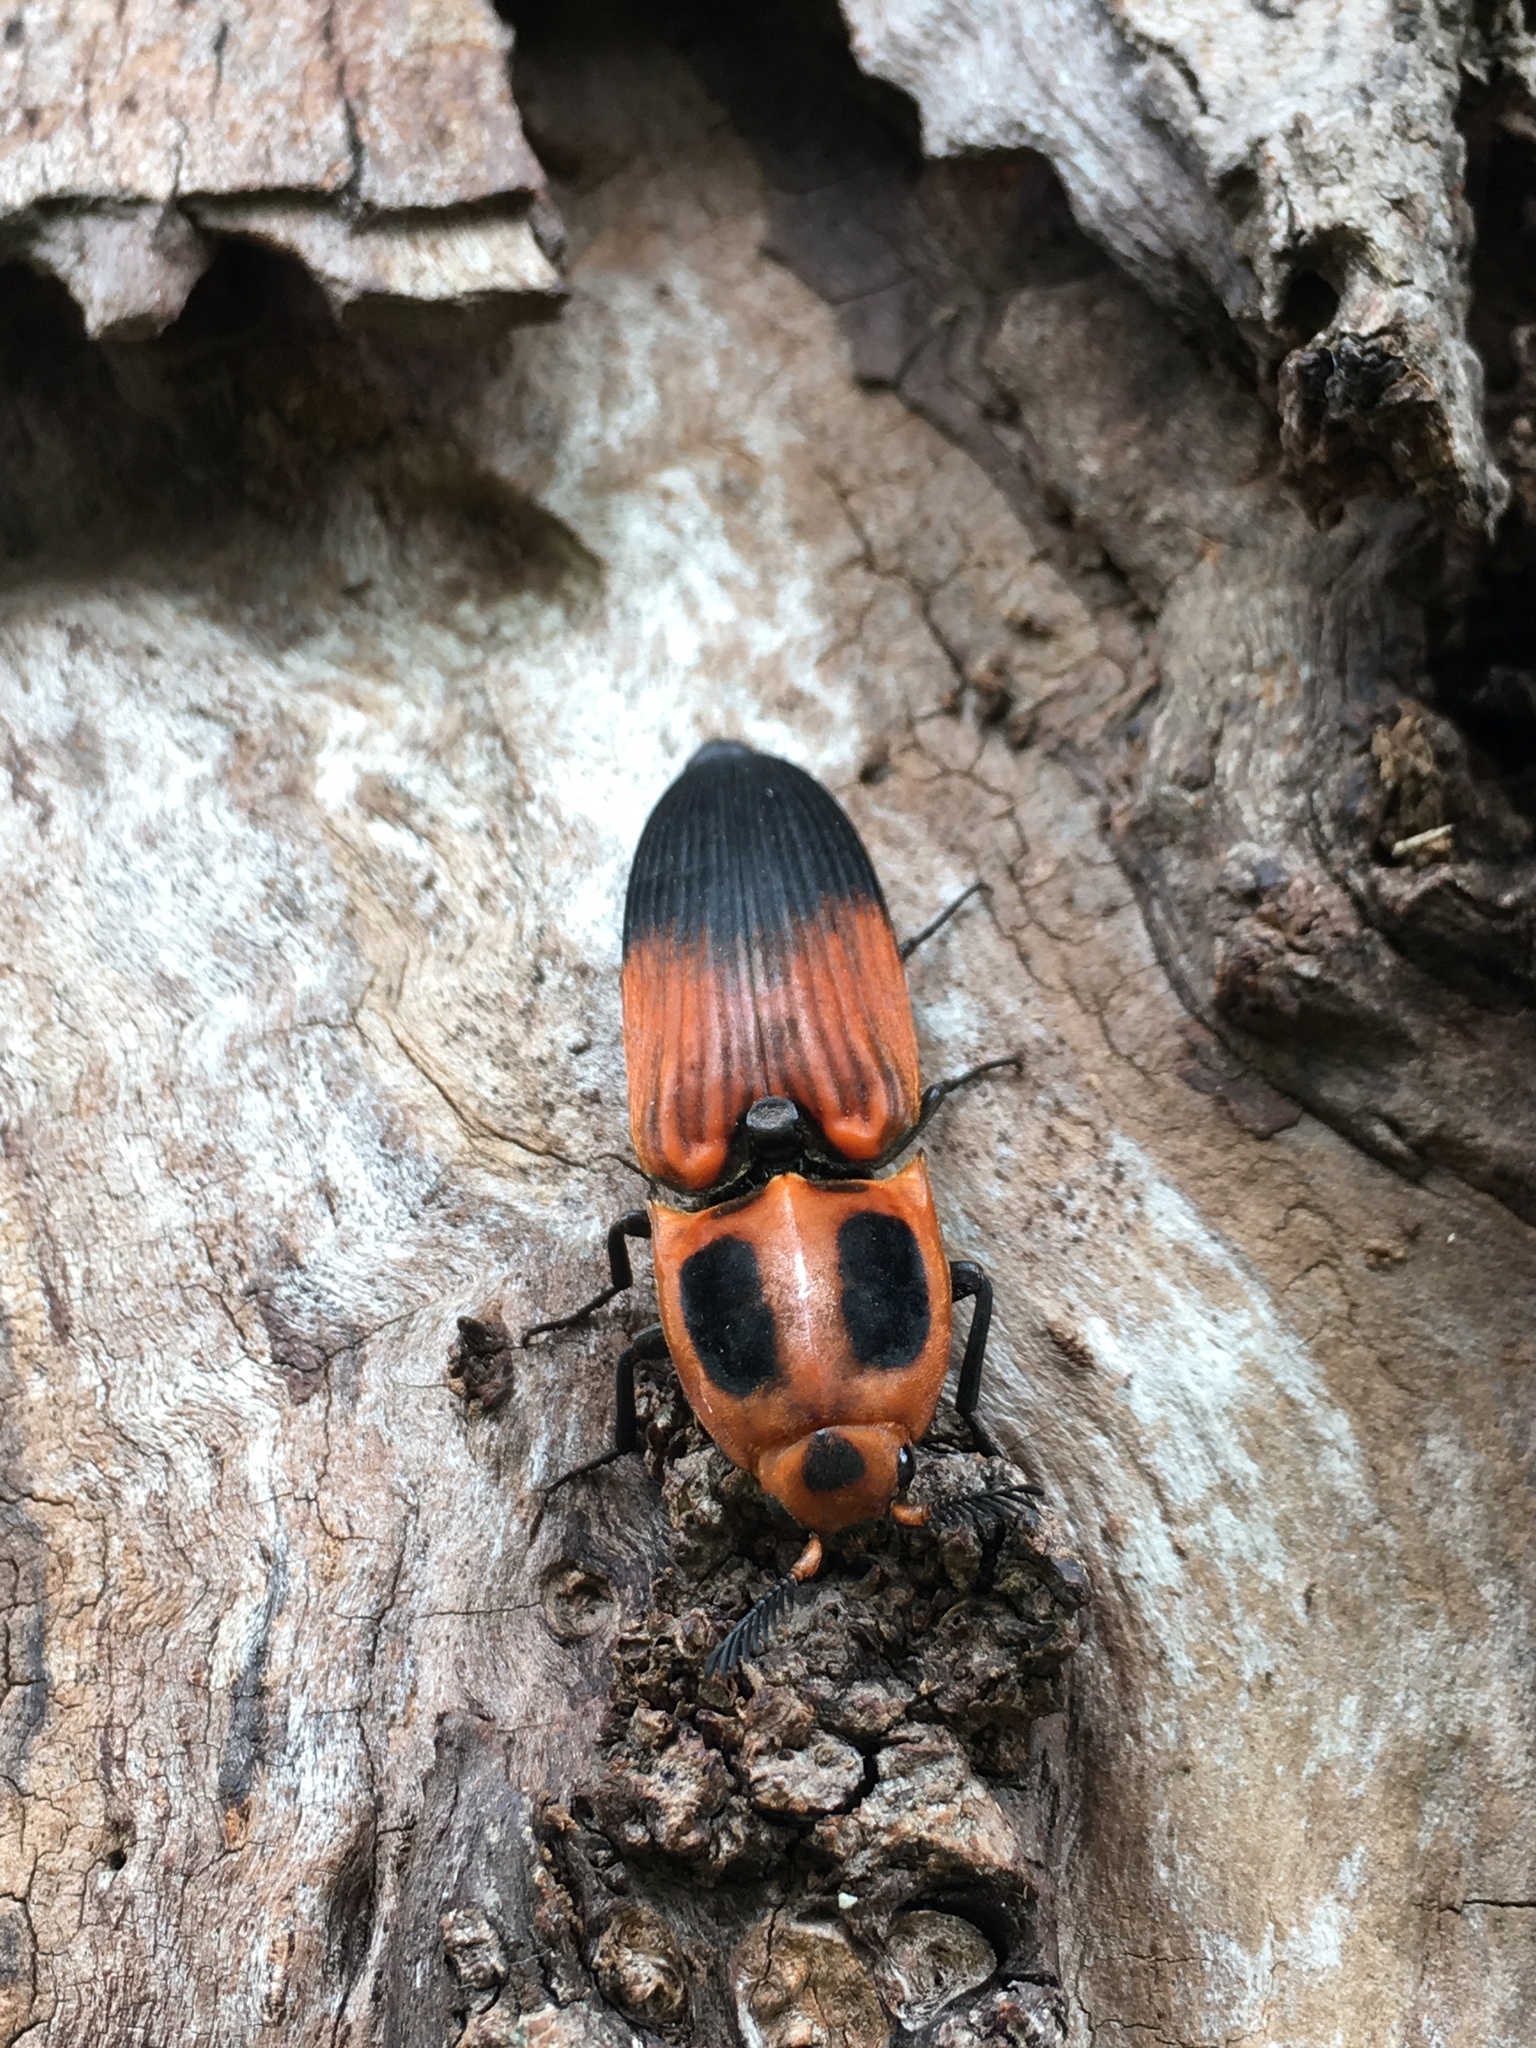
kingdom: Animalia
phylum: Arthropoda
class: Insecta
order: Coleoptera
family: Elateridae
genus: Hemirhipus
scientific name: Hemirhipus
